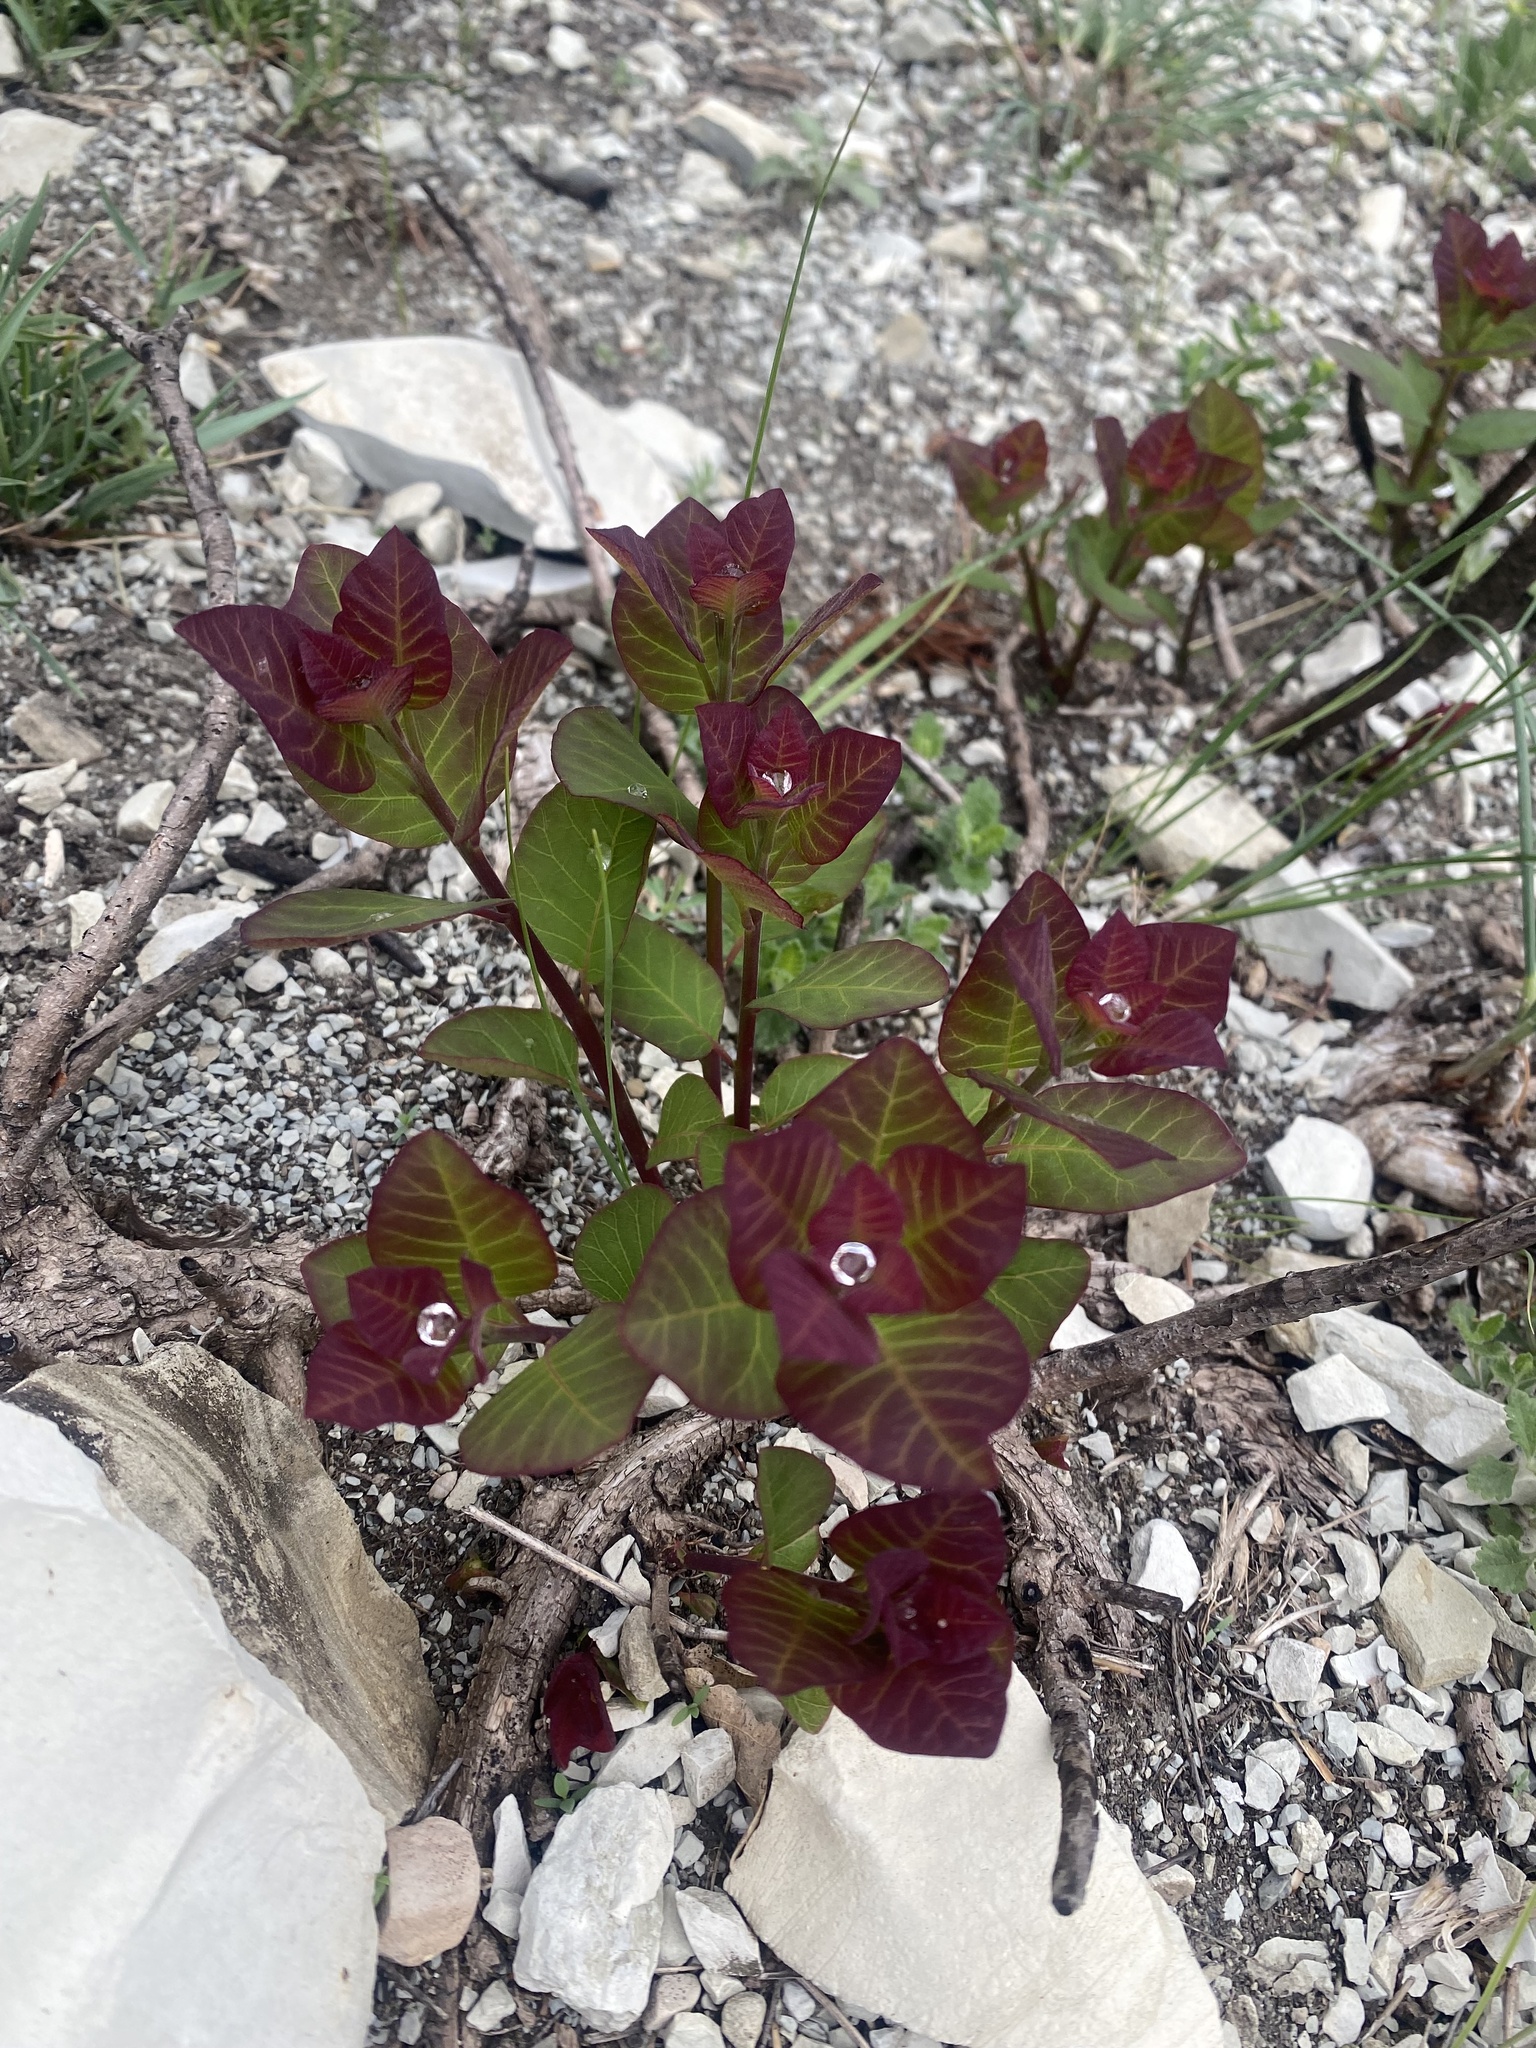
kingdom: Plantae
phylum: Tracheophyta
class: Magnoliopsida
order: Sapindales
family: Anacardiaceae
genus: Cotinus
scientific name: Cotinus coggygria
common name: Smoke-tree
